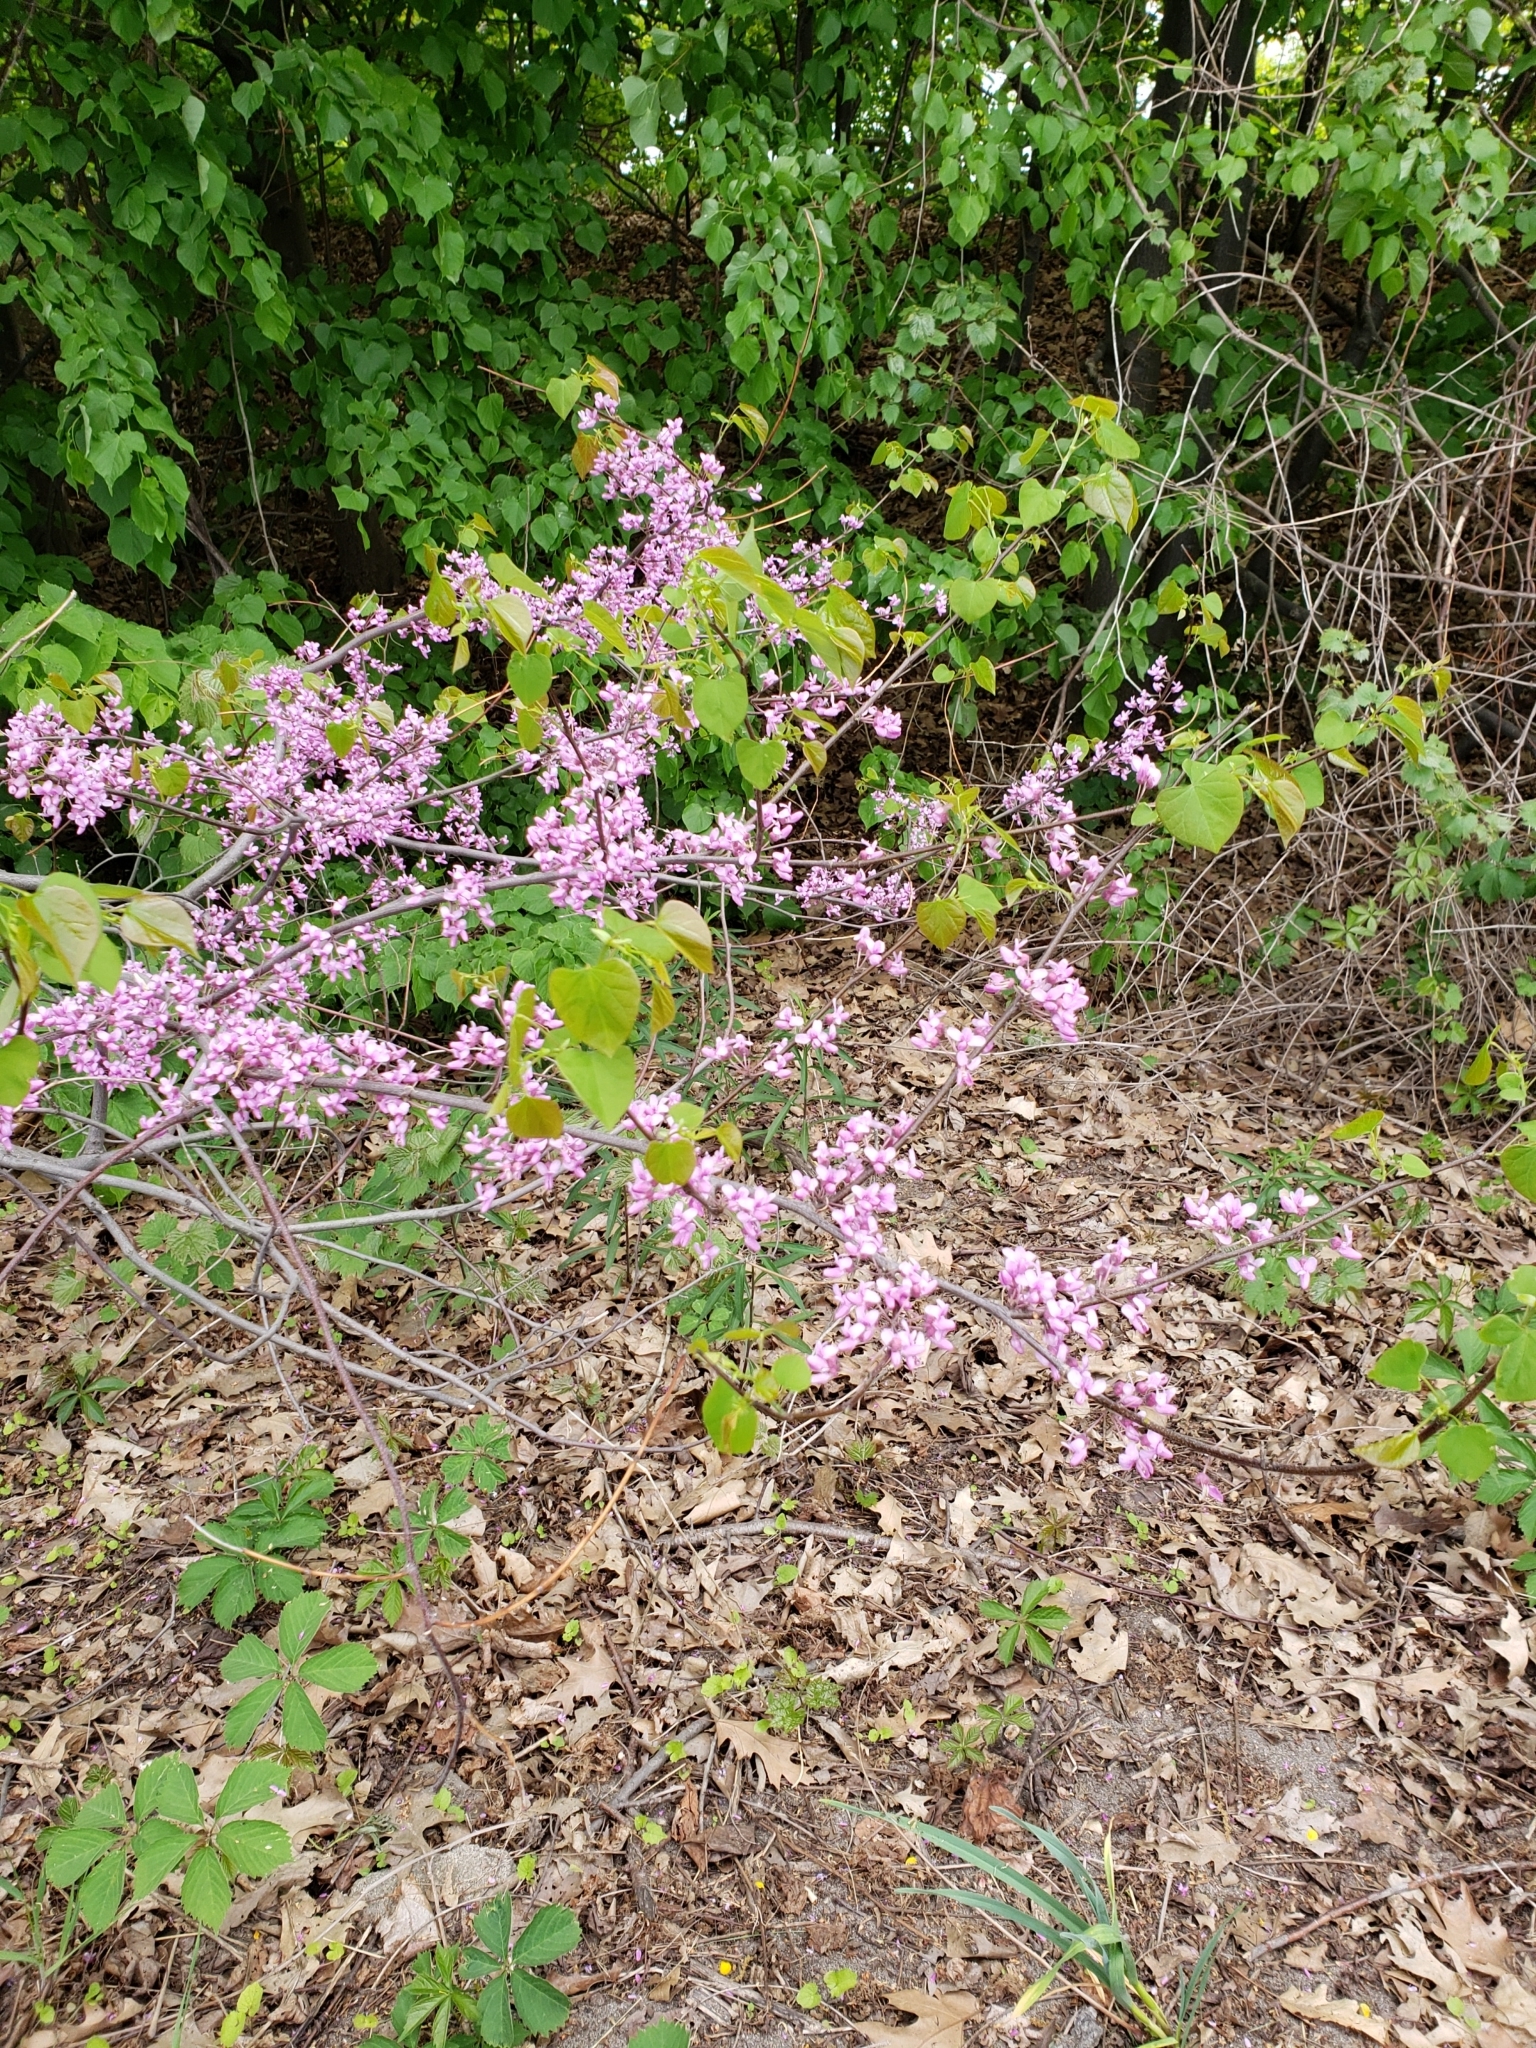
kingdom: Plantae
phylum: Tracheophyta
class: Magnoliopsida
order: Fabales
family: Fabaceae
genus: Cercis
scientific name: Cercis canadensis
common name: Eastern redbud
